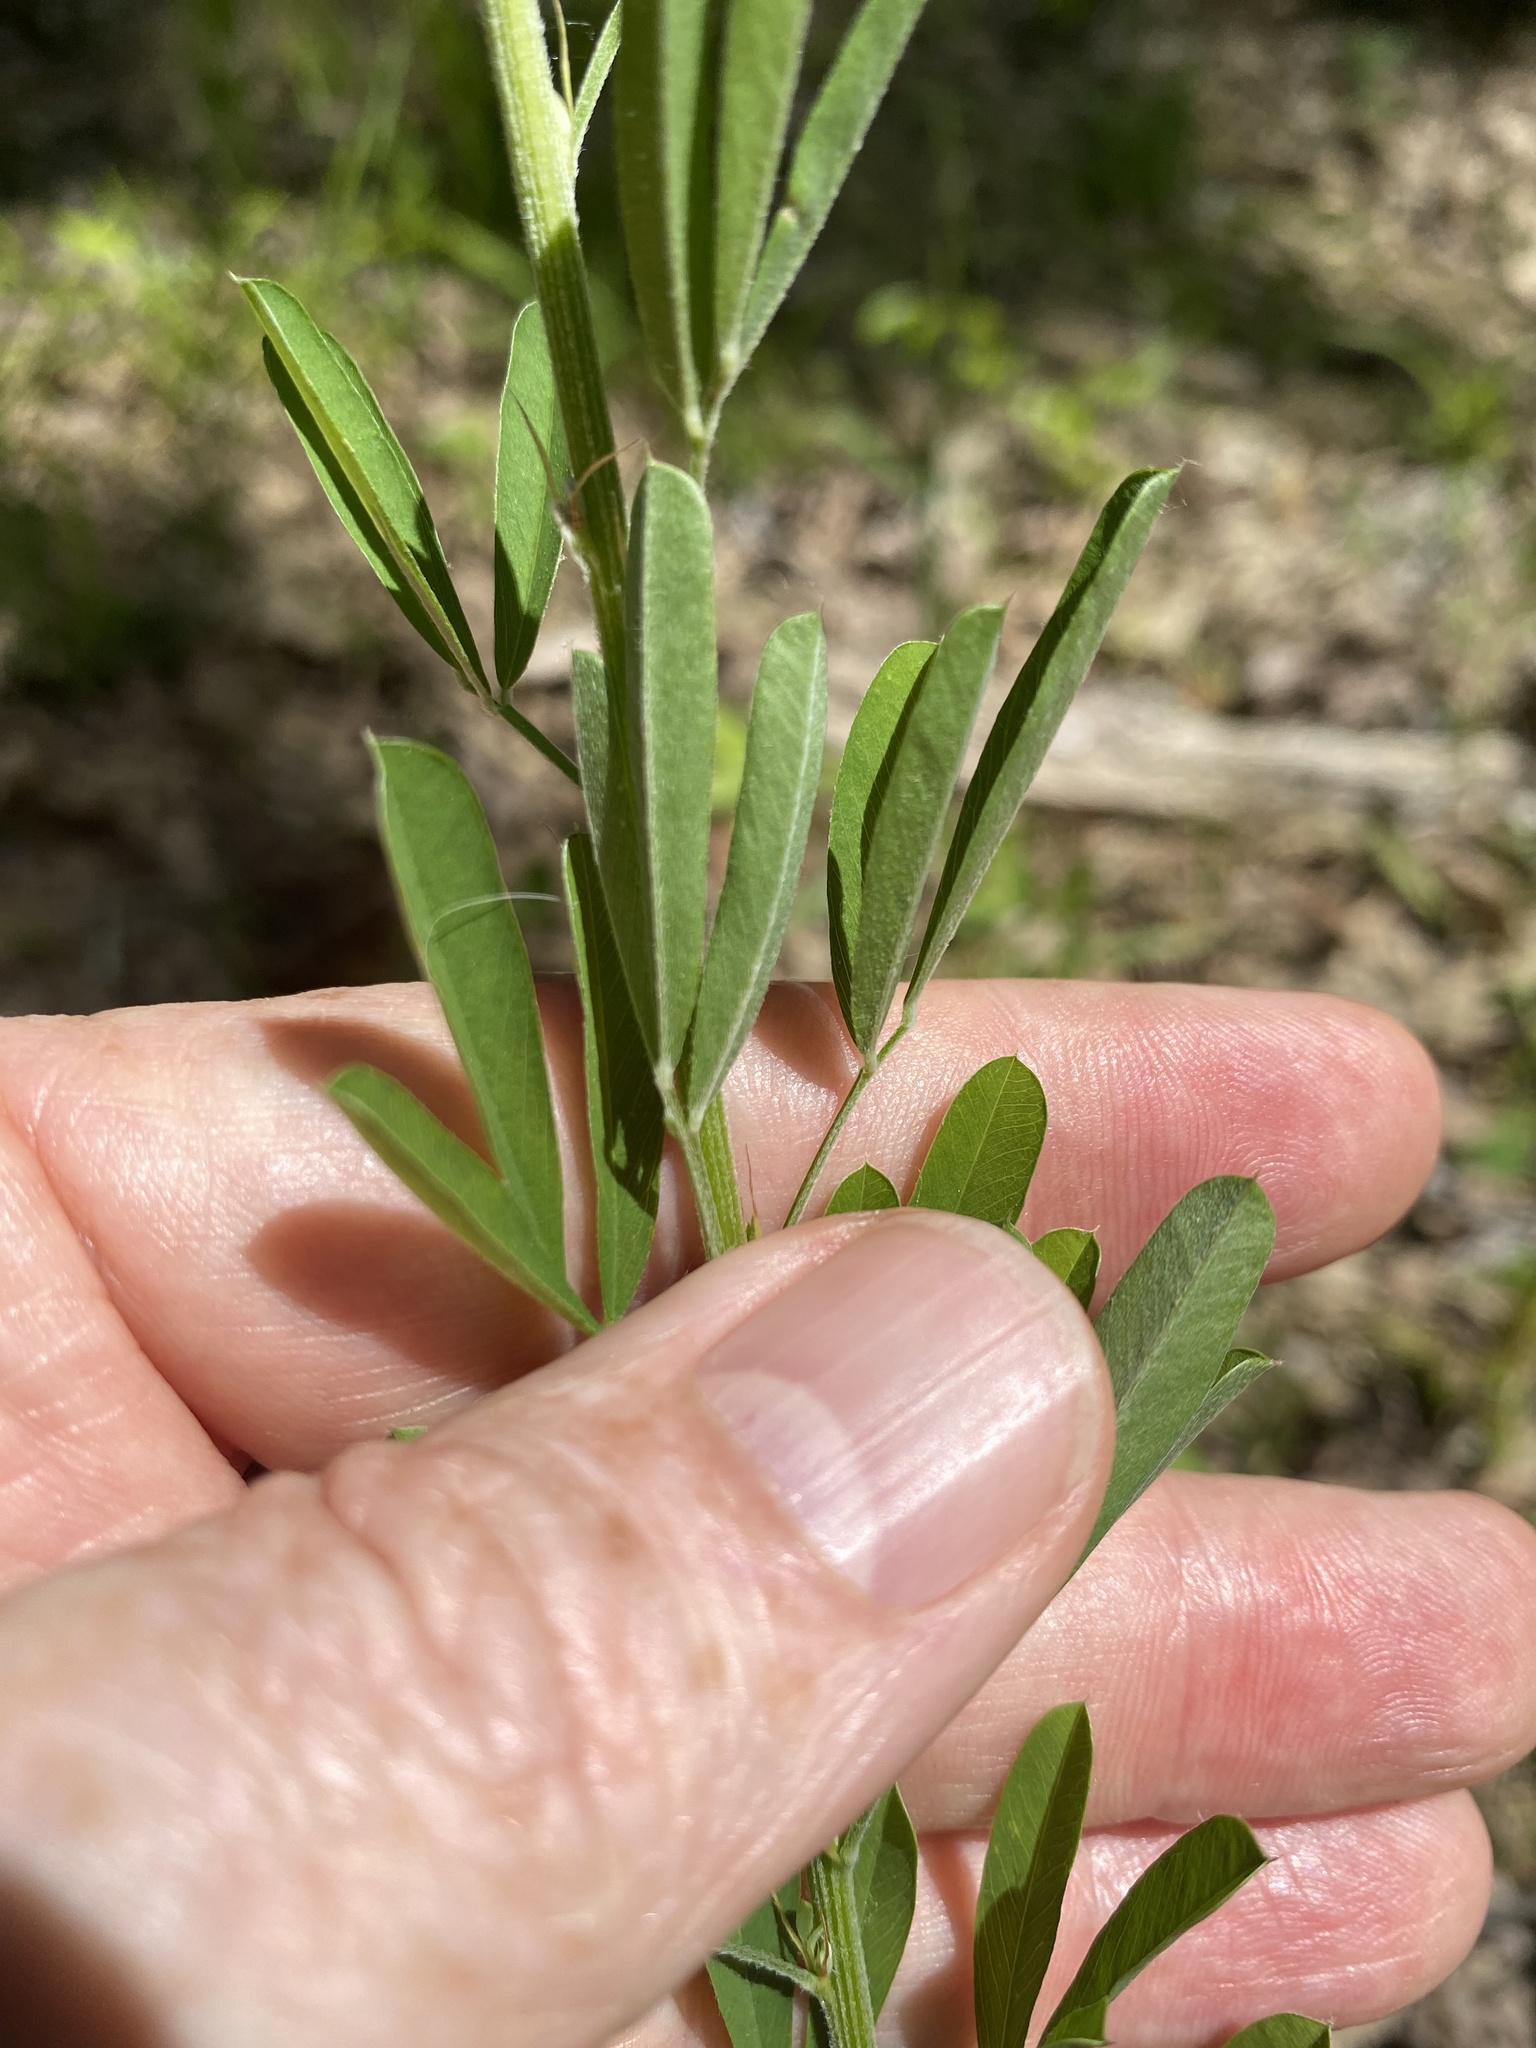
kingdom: Plantae
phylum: Tracheophyta
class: Magnoliopsida
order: Fabales
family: Fabaceae
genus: Lespedeza
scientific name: Lespedeza cuneata
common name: Chinese bush-clover
